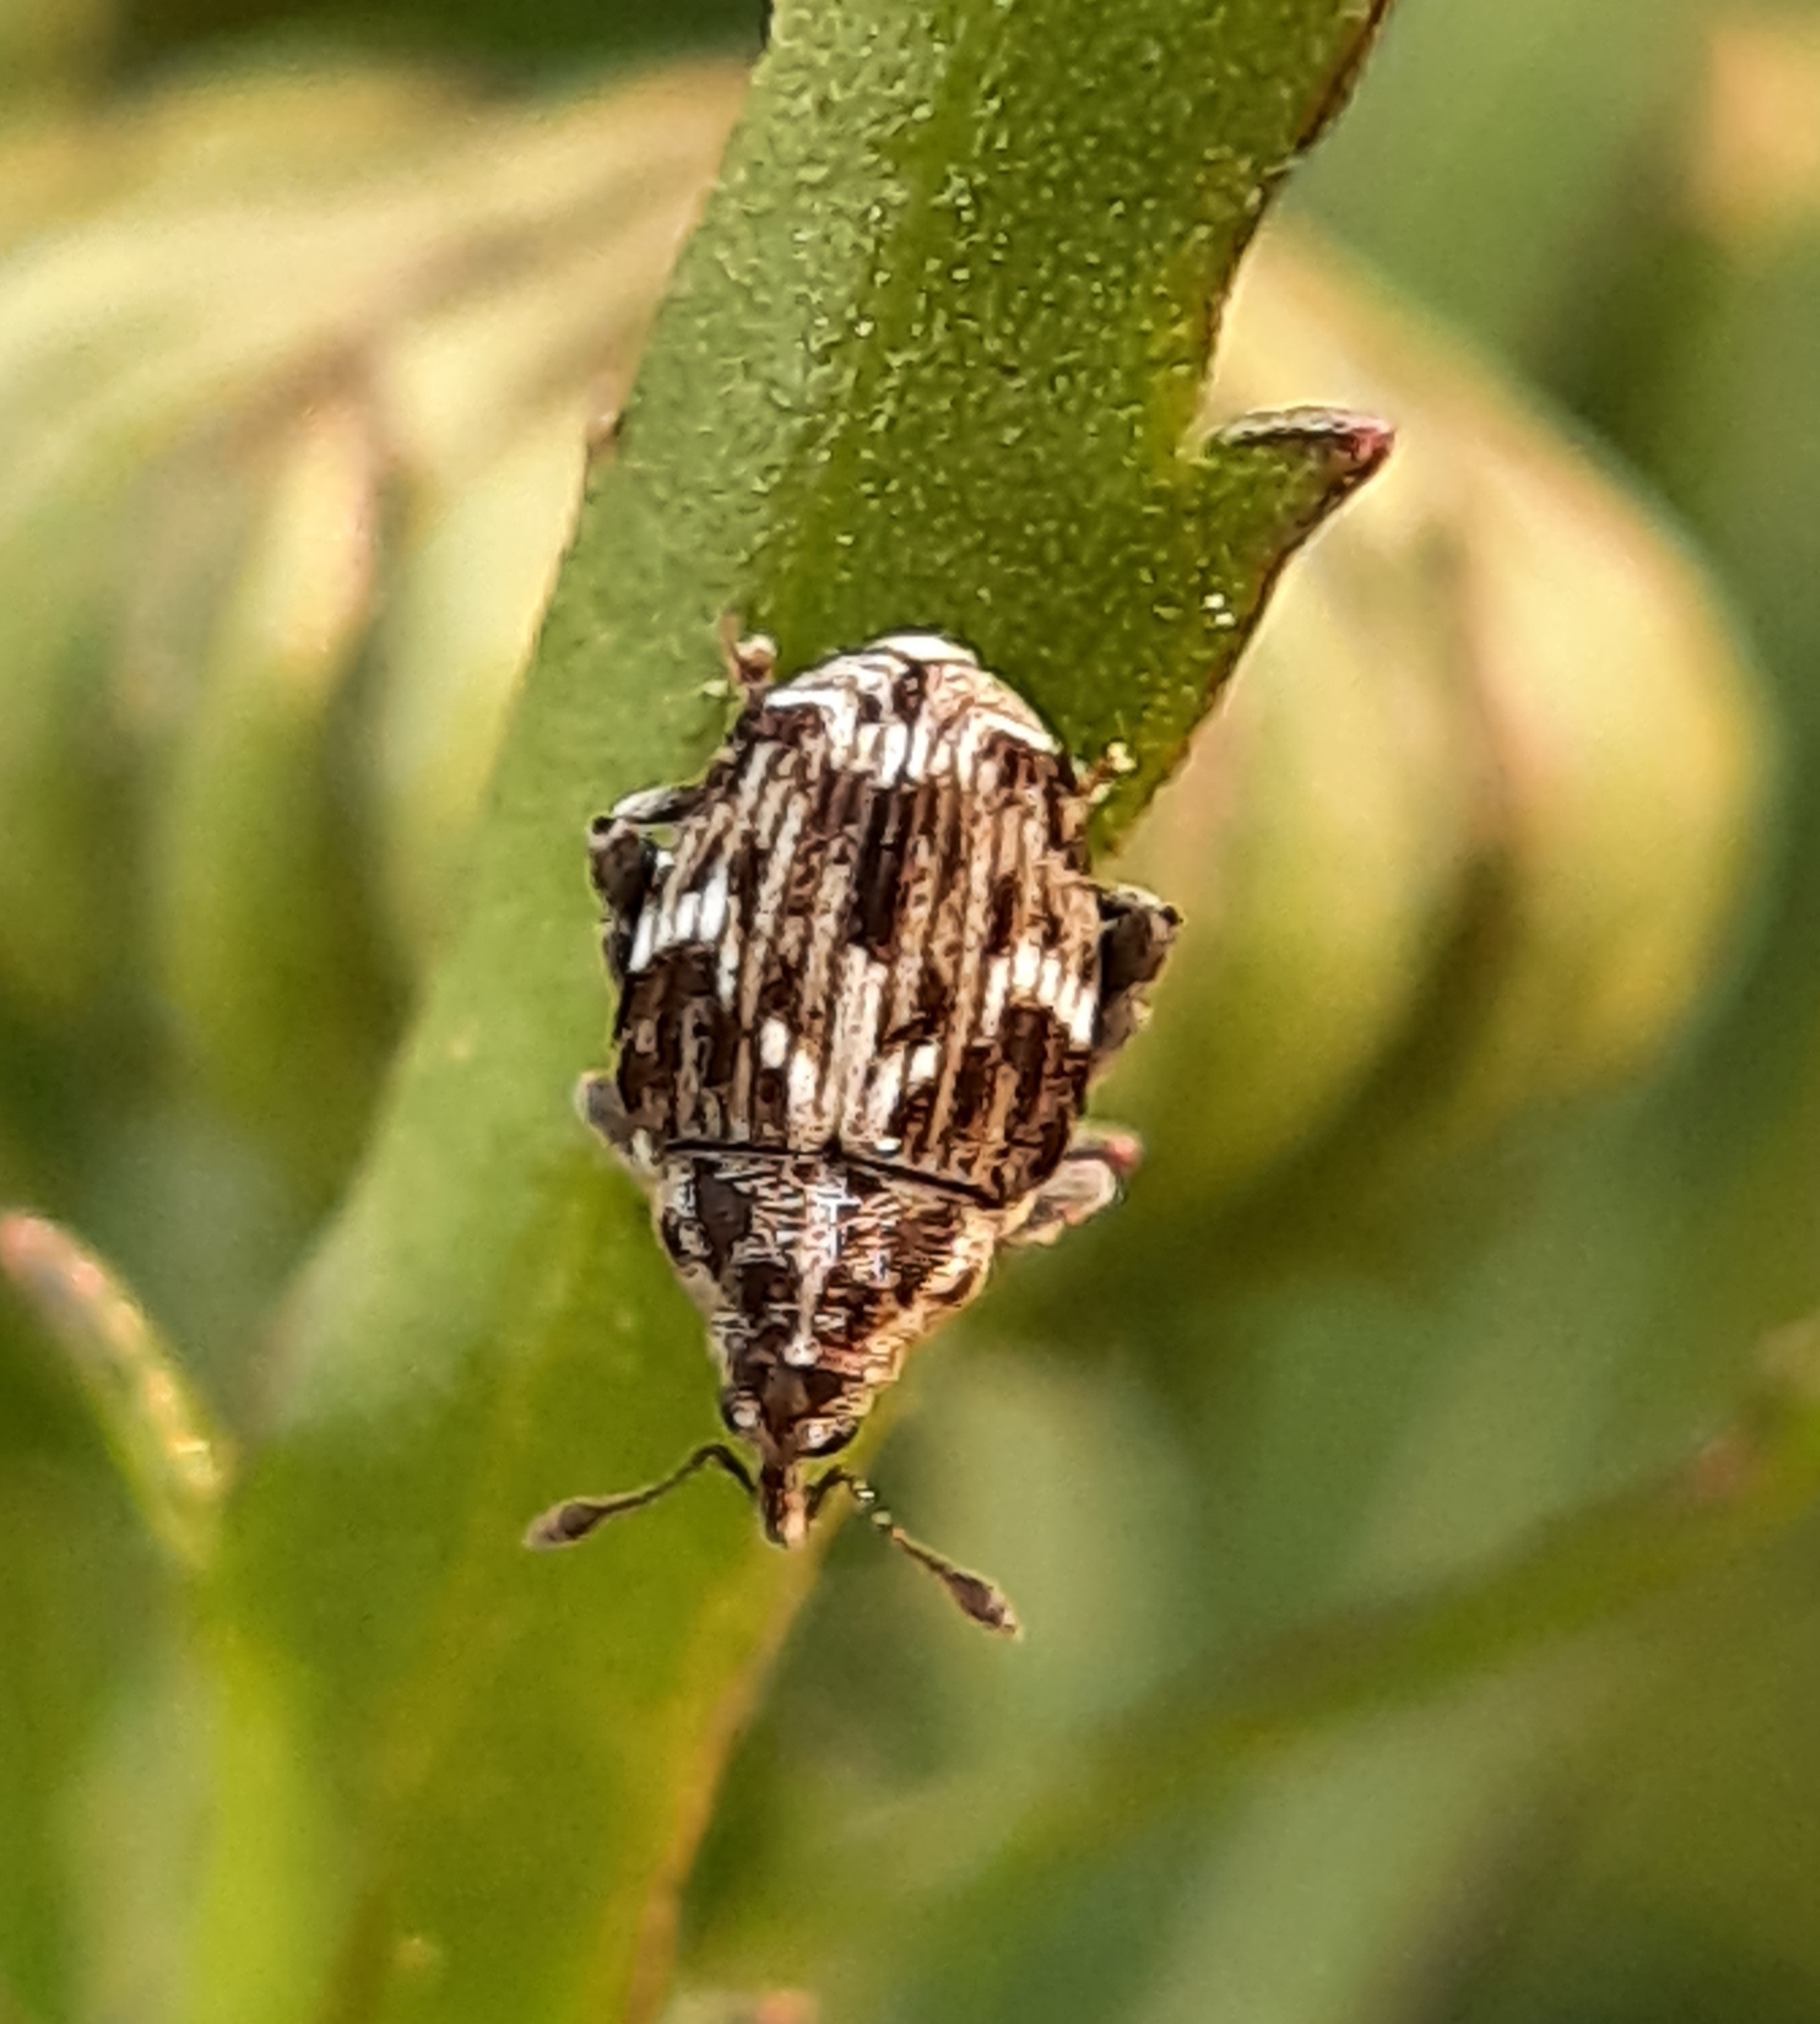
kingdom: Animalia
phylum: Arthropoda
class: Insecta
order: Coleoptera
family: Curculionidae
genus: Microplontus
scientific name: Microplontus campestris
